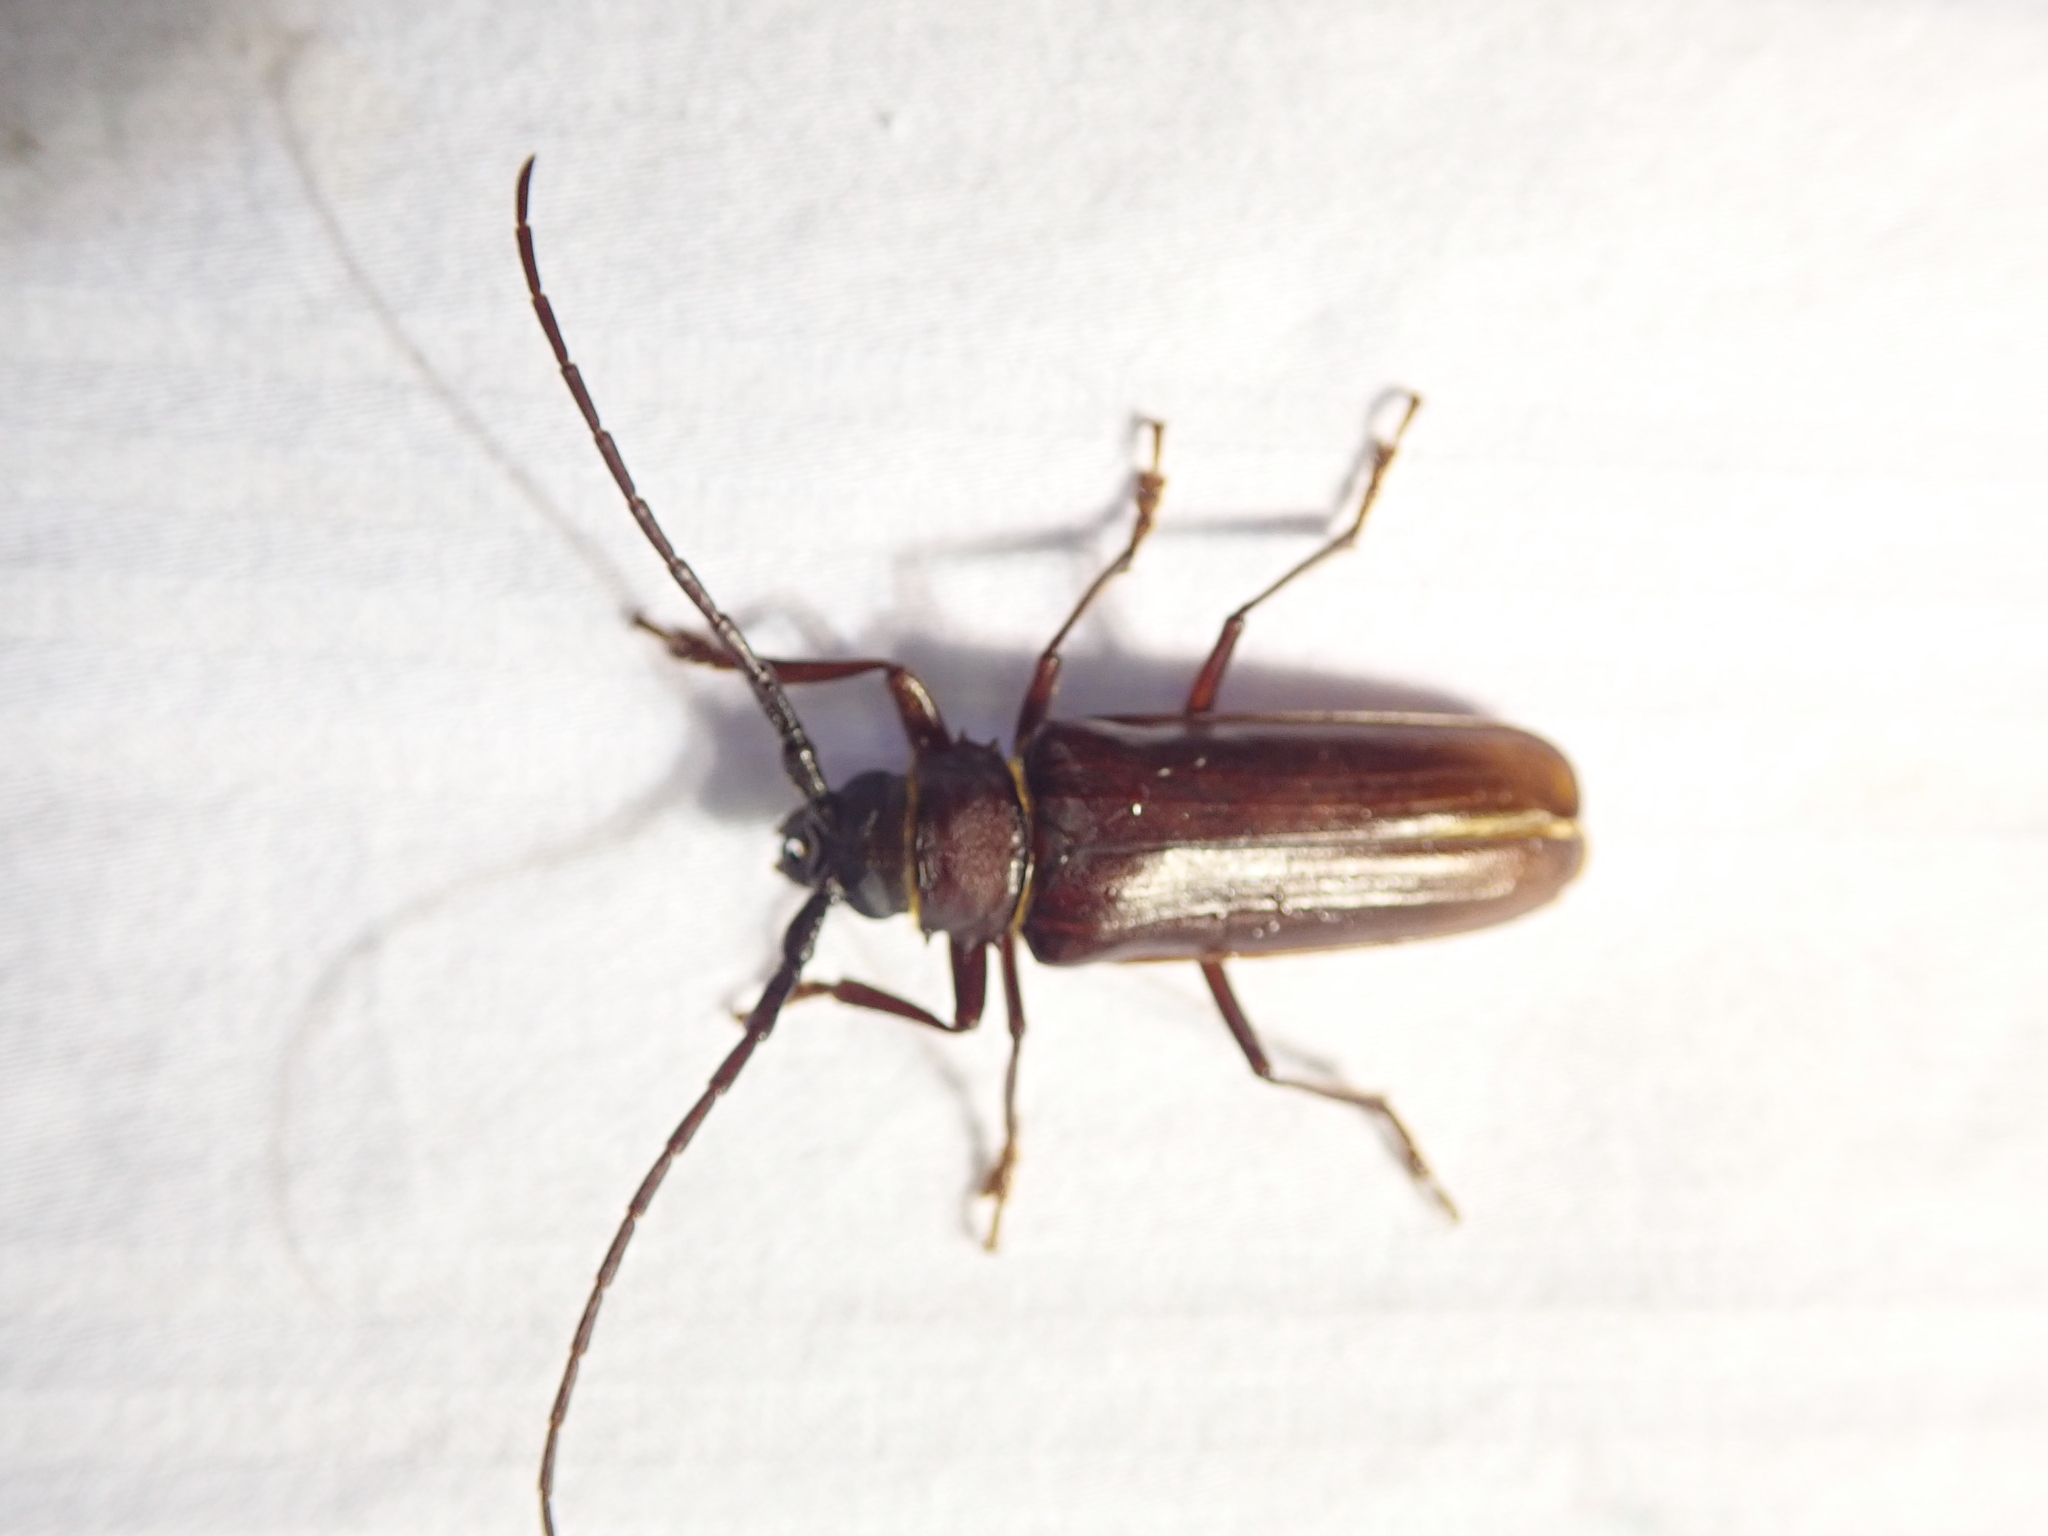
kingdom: Animalia
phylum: Arthropoda
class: Insecta
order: Coleoptera
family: Cerambycidae
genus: Orthosoma
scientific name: Orthosoma brunneum
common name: Brown prionid beetle
